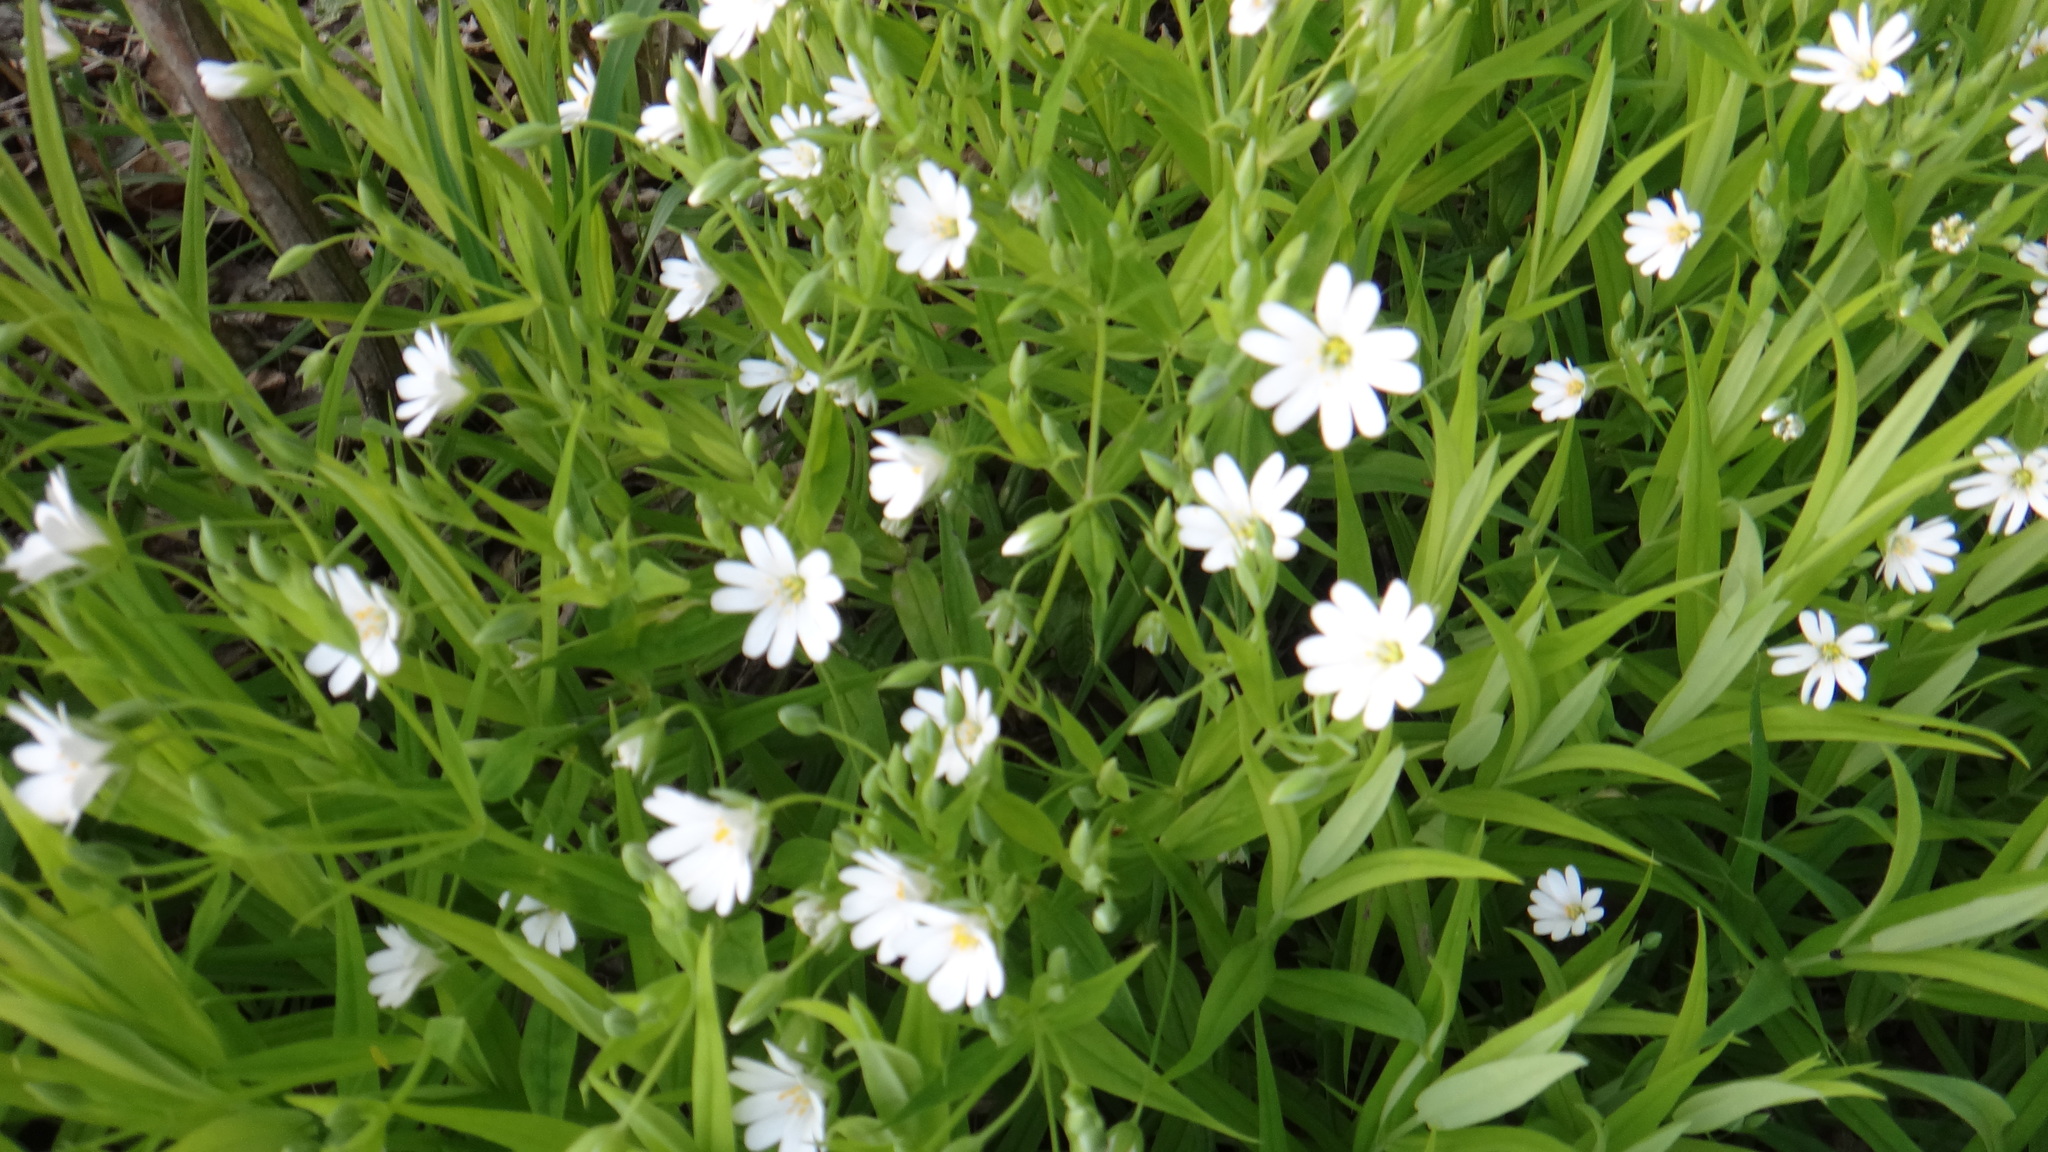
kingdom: Plantae
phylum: Tracheophyta
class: Magnoliopsida
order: Caryophyllales
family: Caryophyllaceae
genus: Rabelera
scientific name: Rabelera holostea
